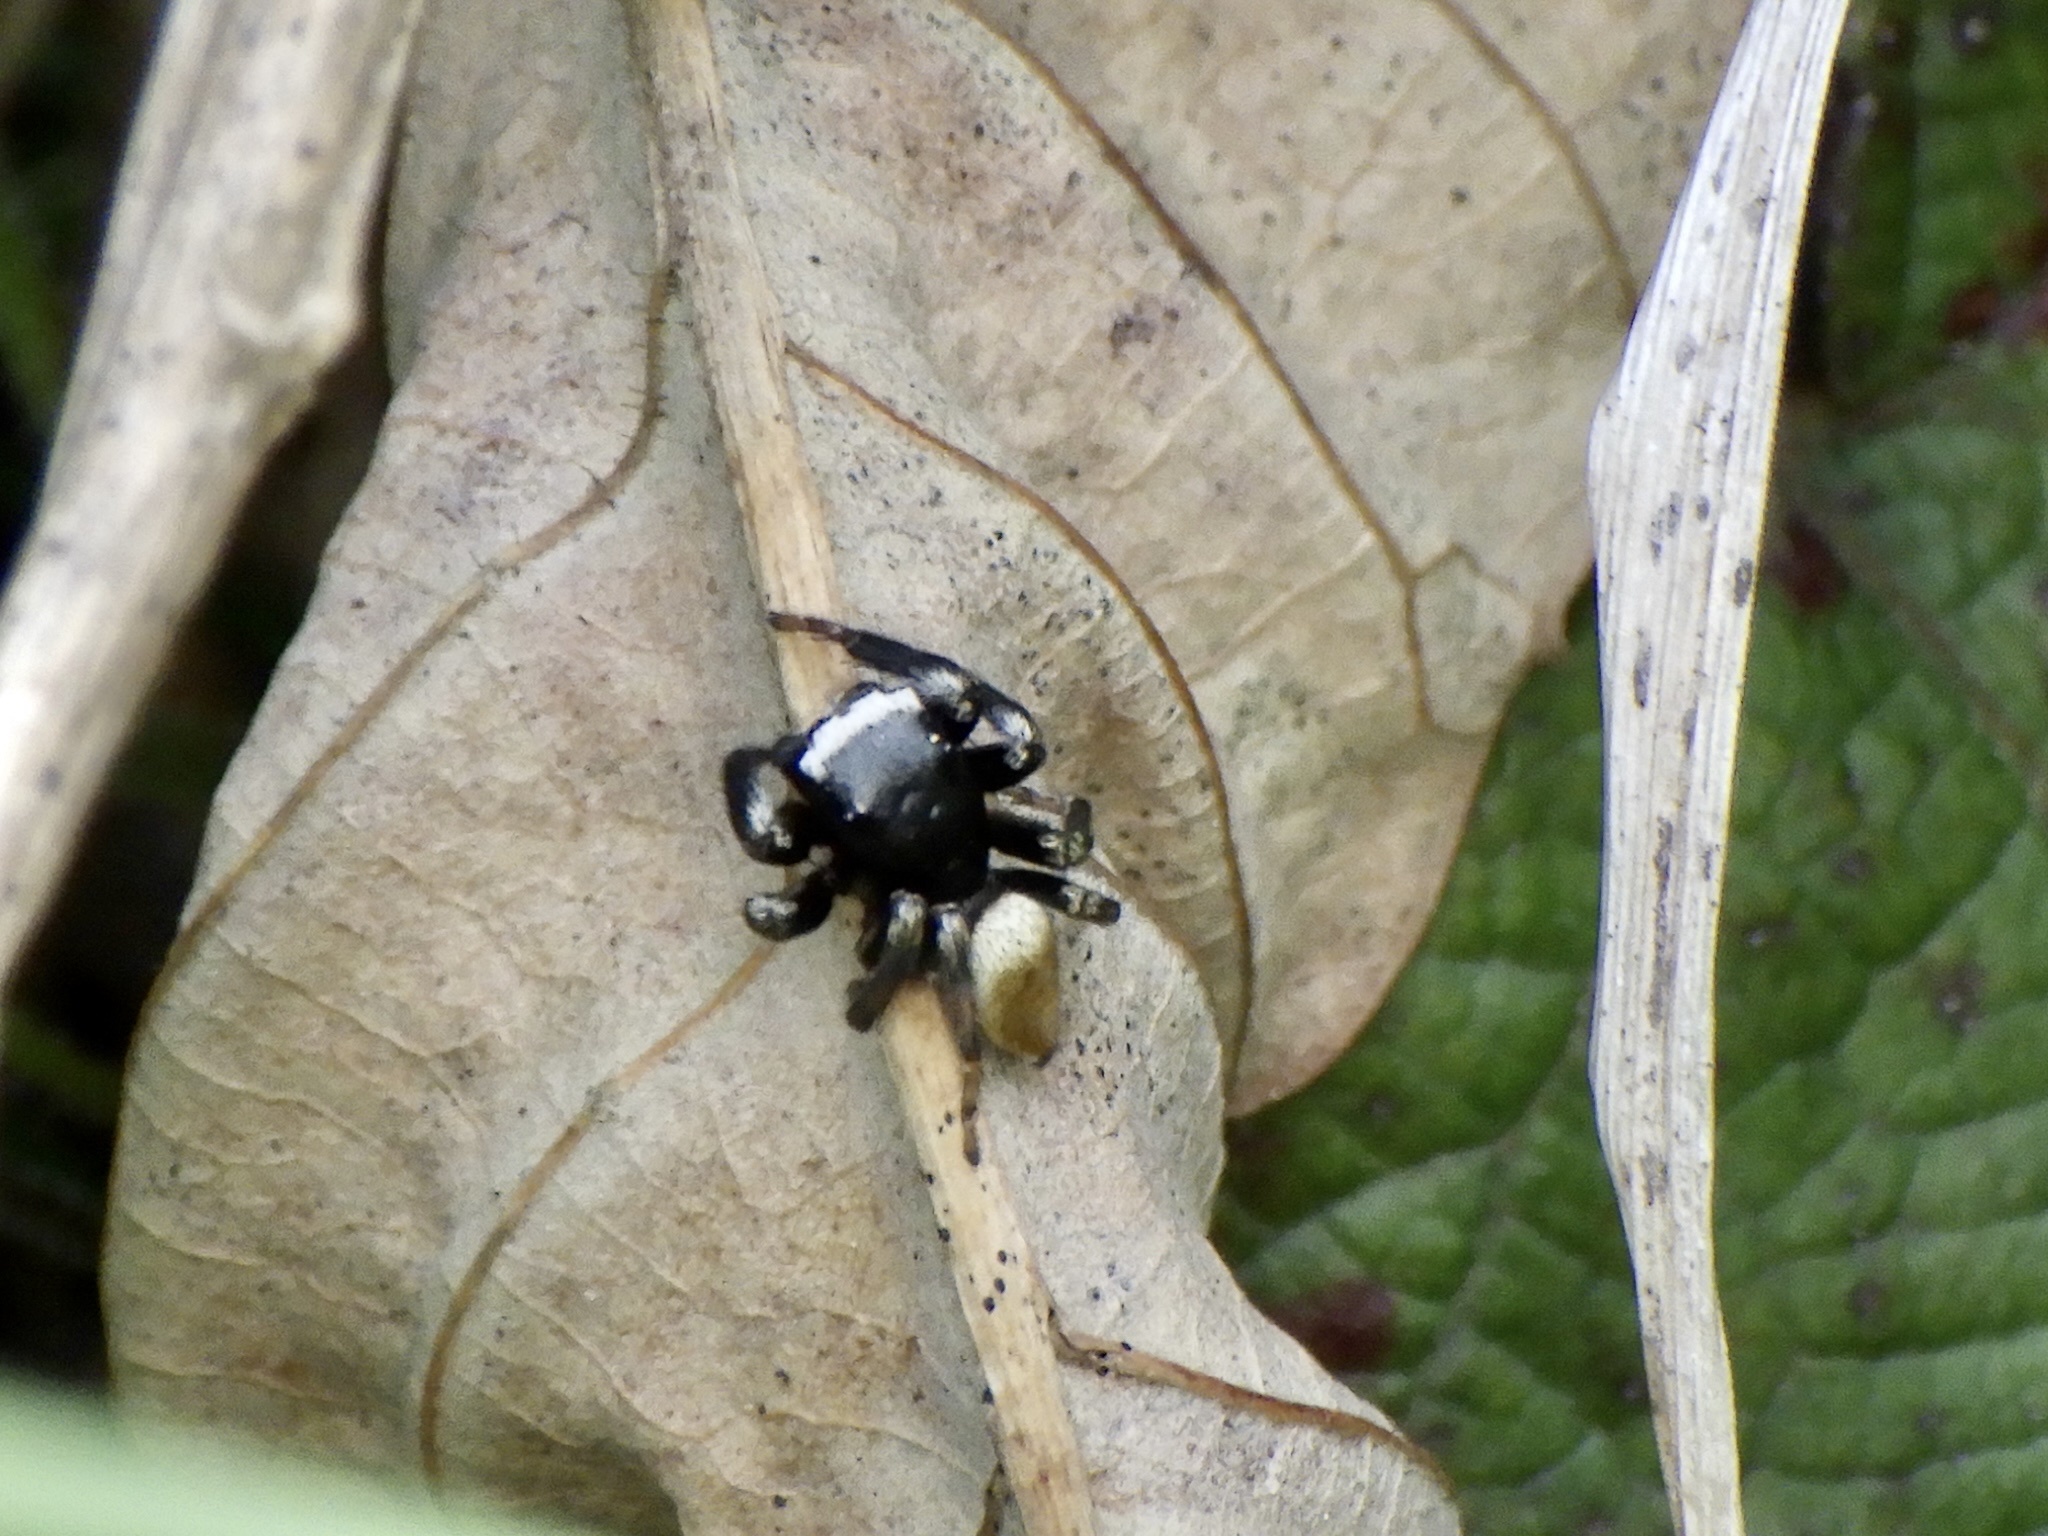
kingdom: Animalia
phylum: Arthropoda
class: Arachnida
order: Araneae
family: Salticidae
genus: Evarcha
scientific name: Evarcha albaria
